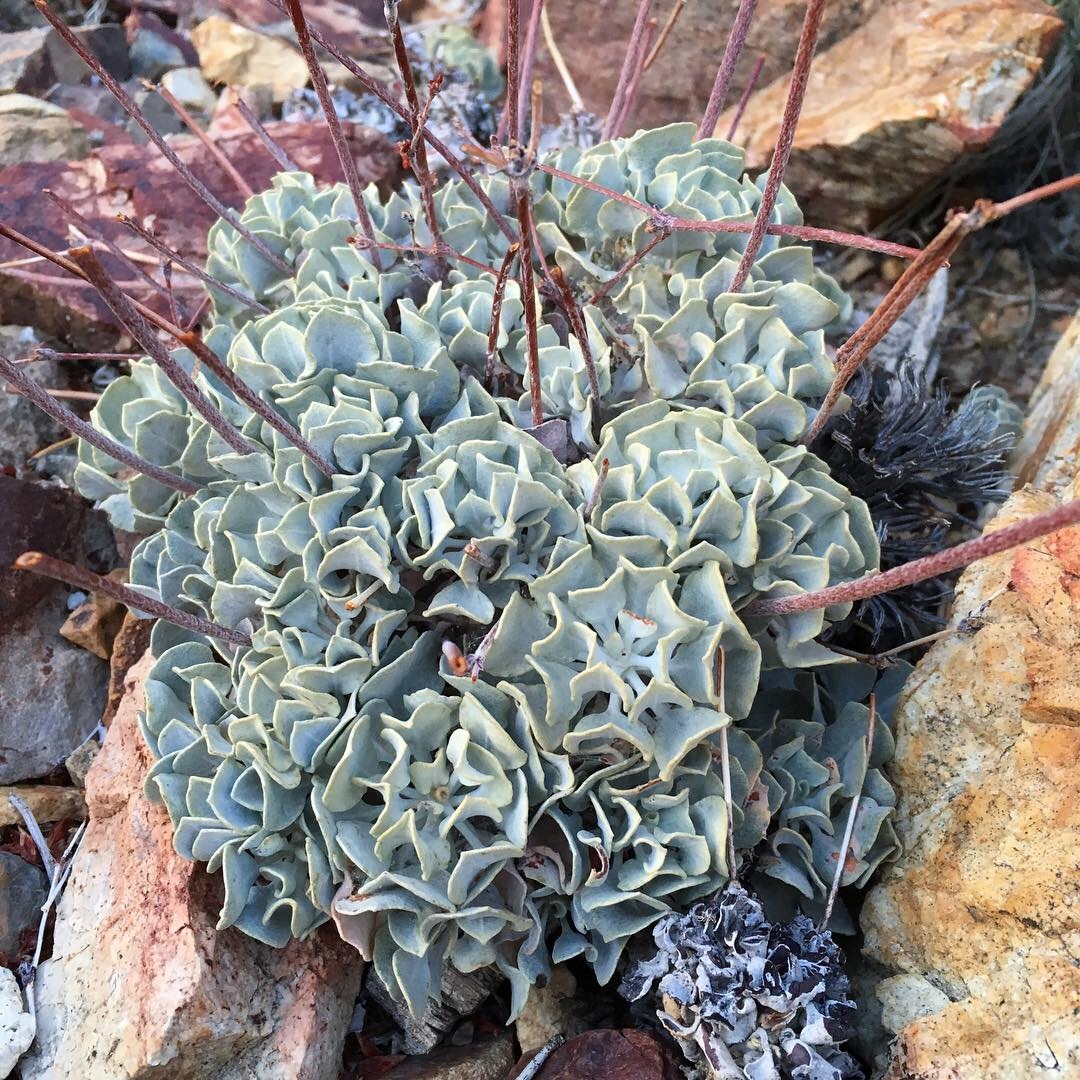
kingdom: Plantae
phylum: Tracheophyta
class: Magnoliopsida
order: Caryophyllales
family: Polygonaceae
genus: Eriogonum
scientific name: Eriogonum saxatile
